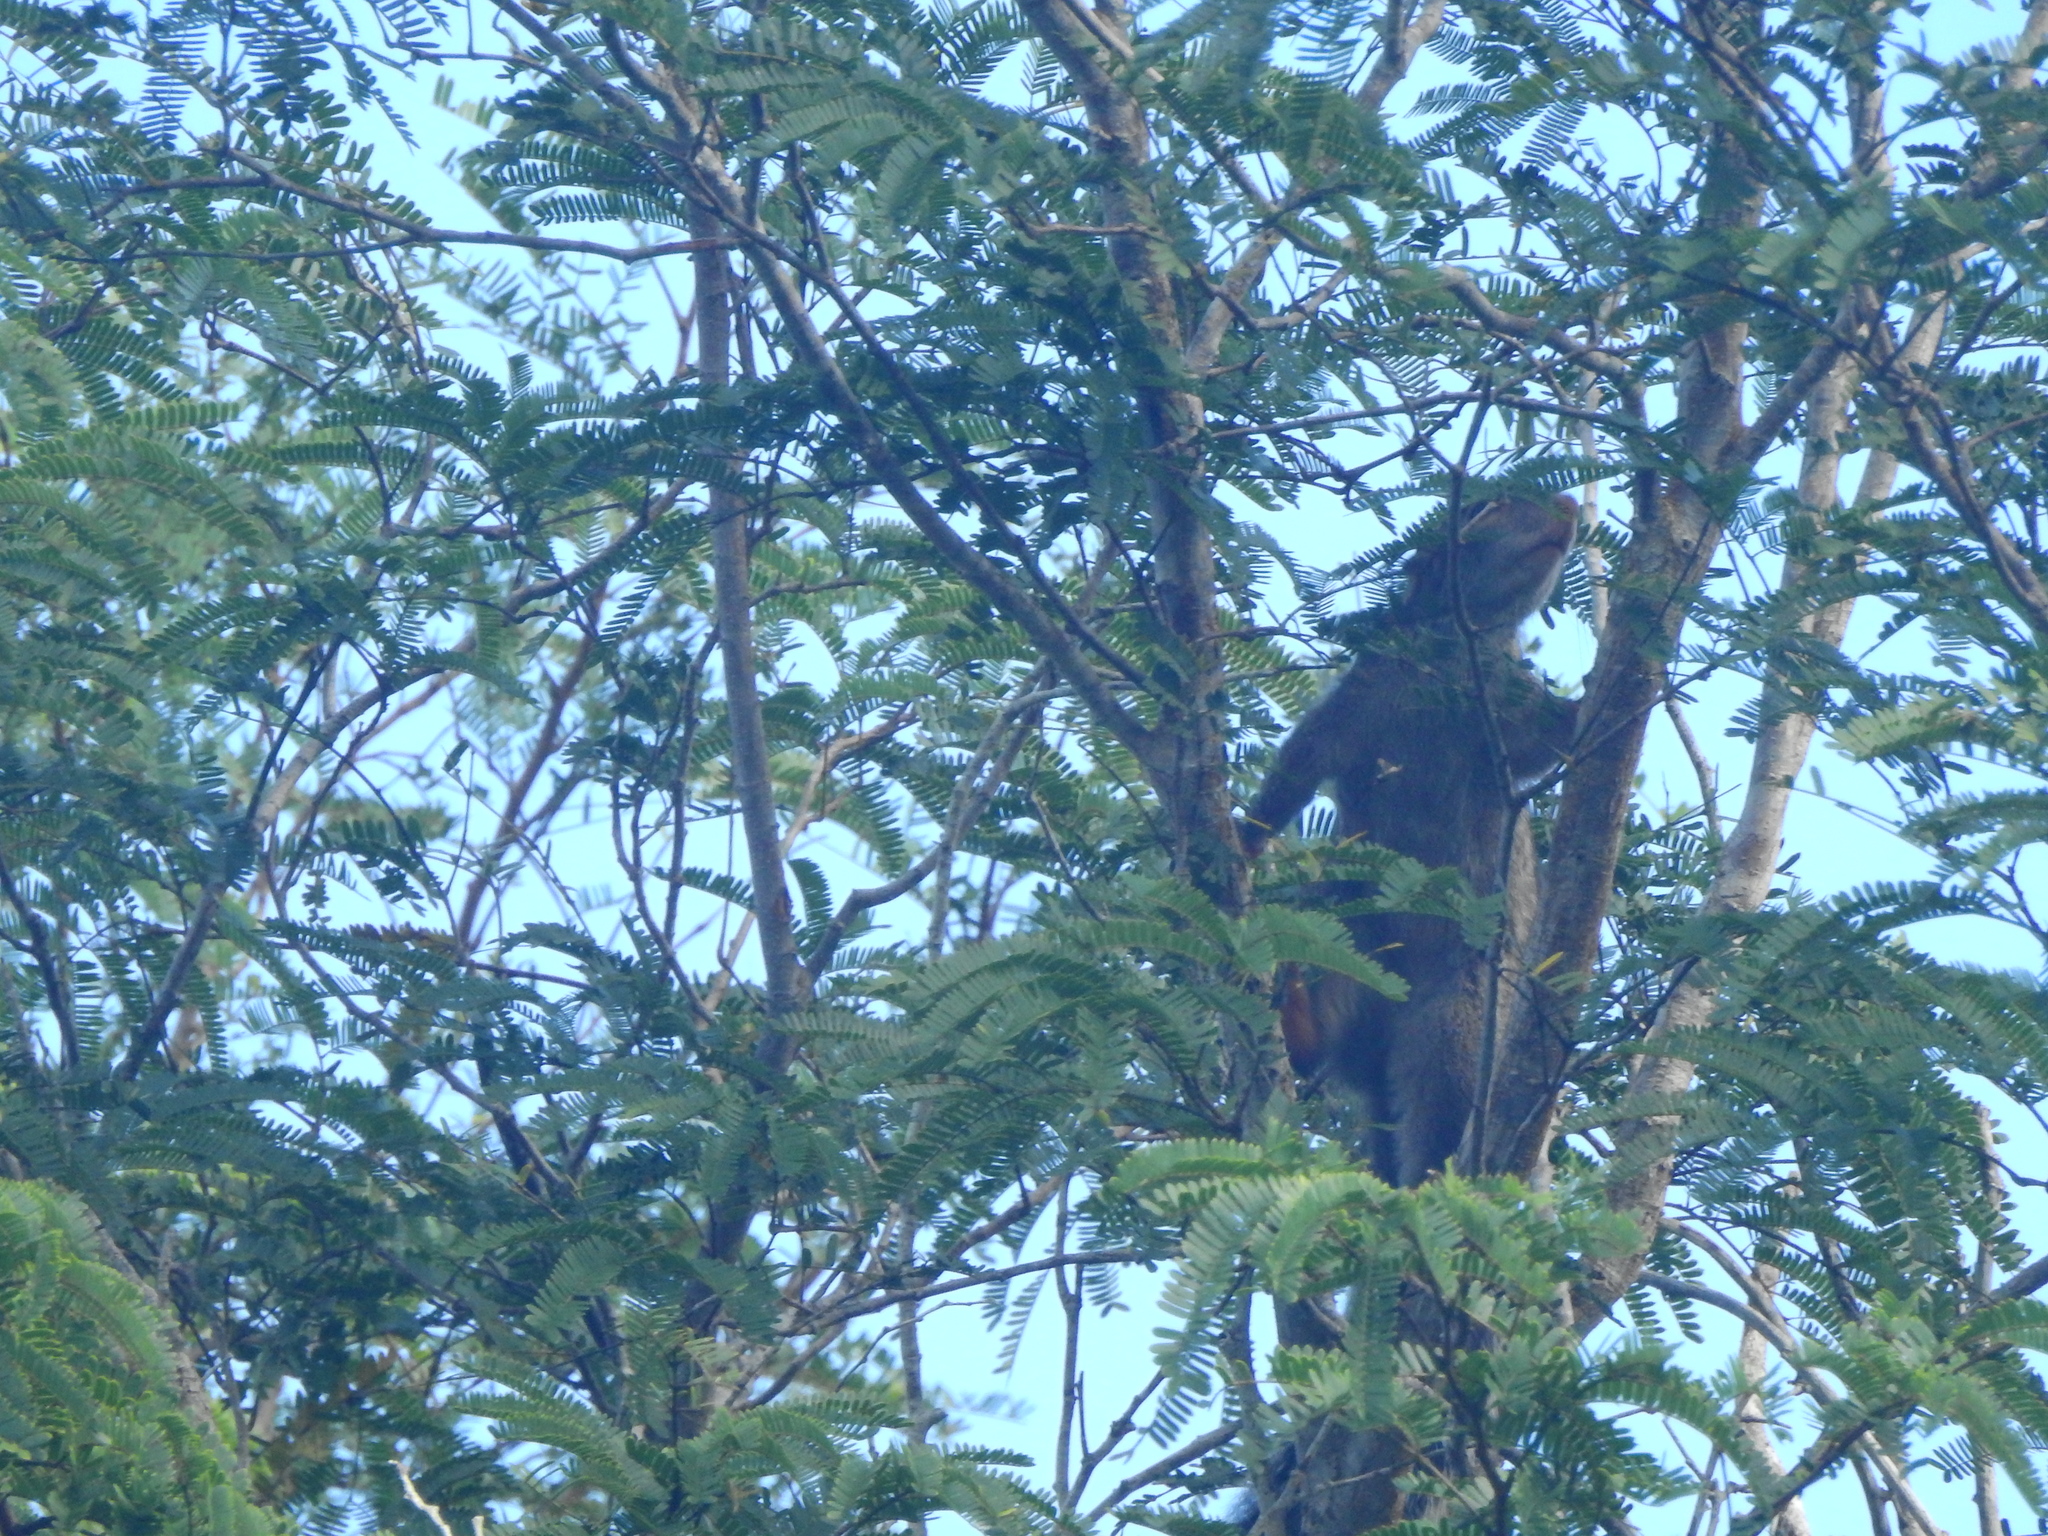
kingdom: Animalia
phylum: Chordata
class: Mammalia
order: Rodentia
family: Sciuridae
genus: Sciurus
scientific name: Sciurus yucatanensis
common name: Yucatan squirrel
